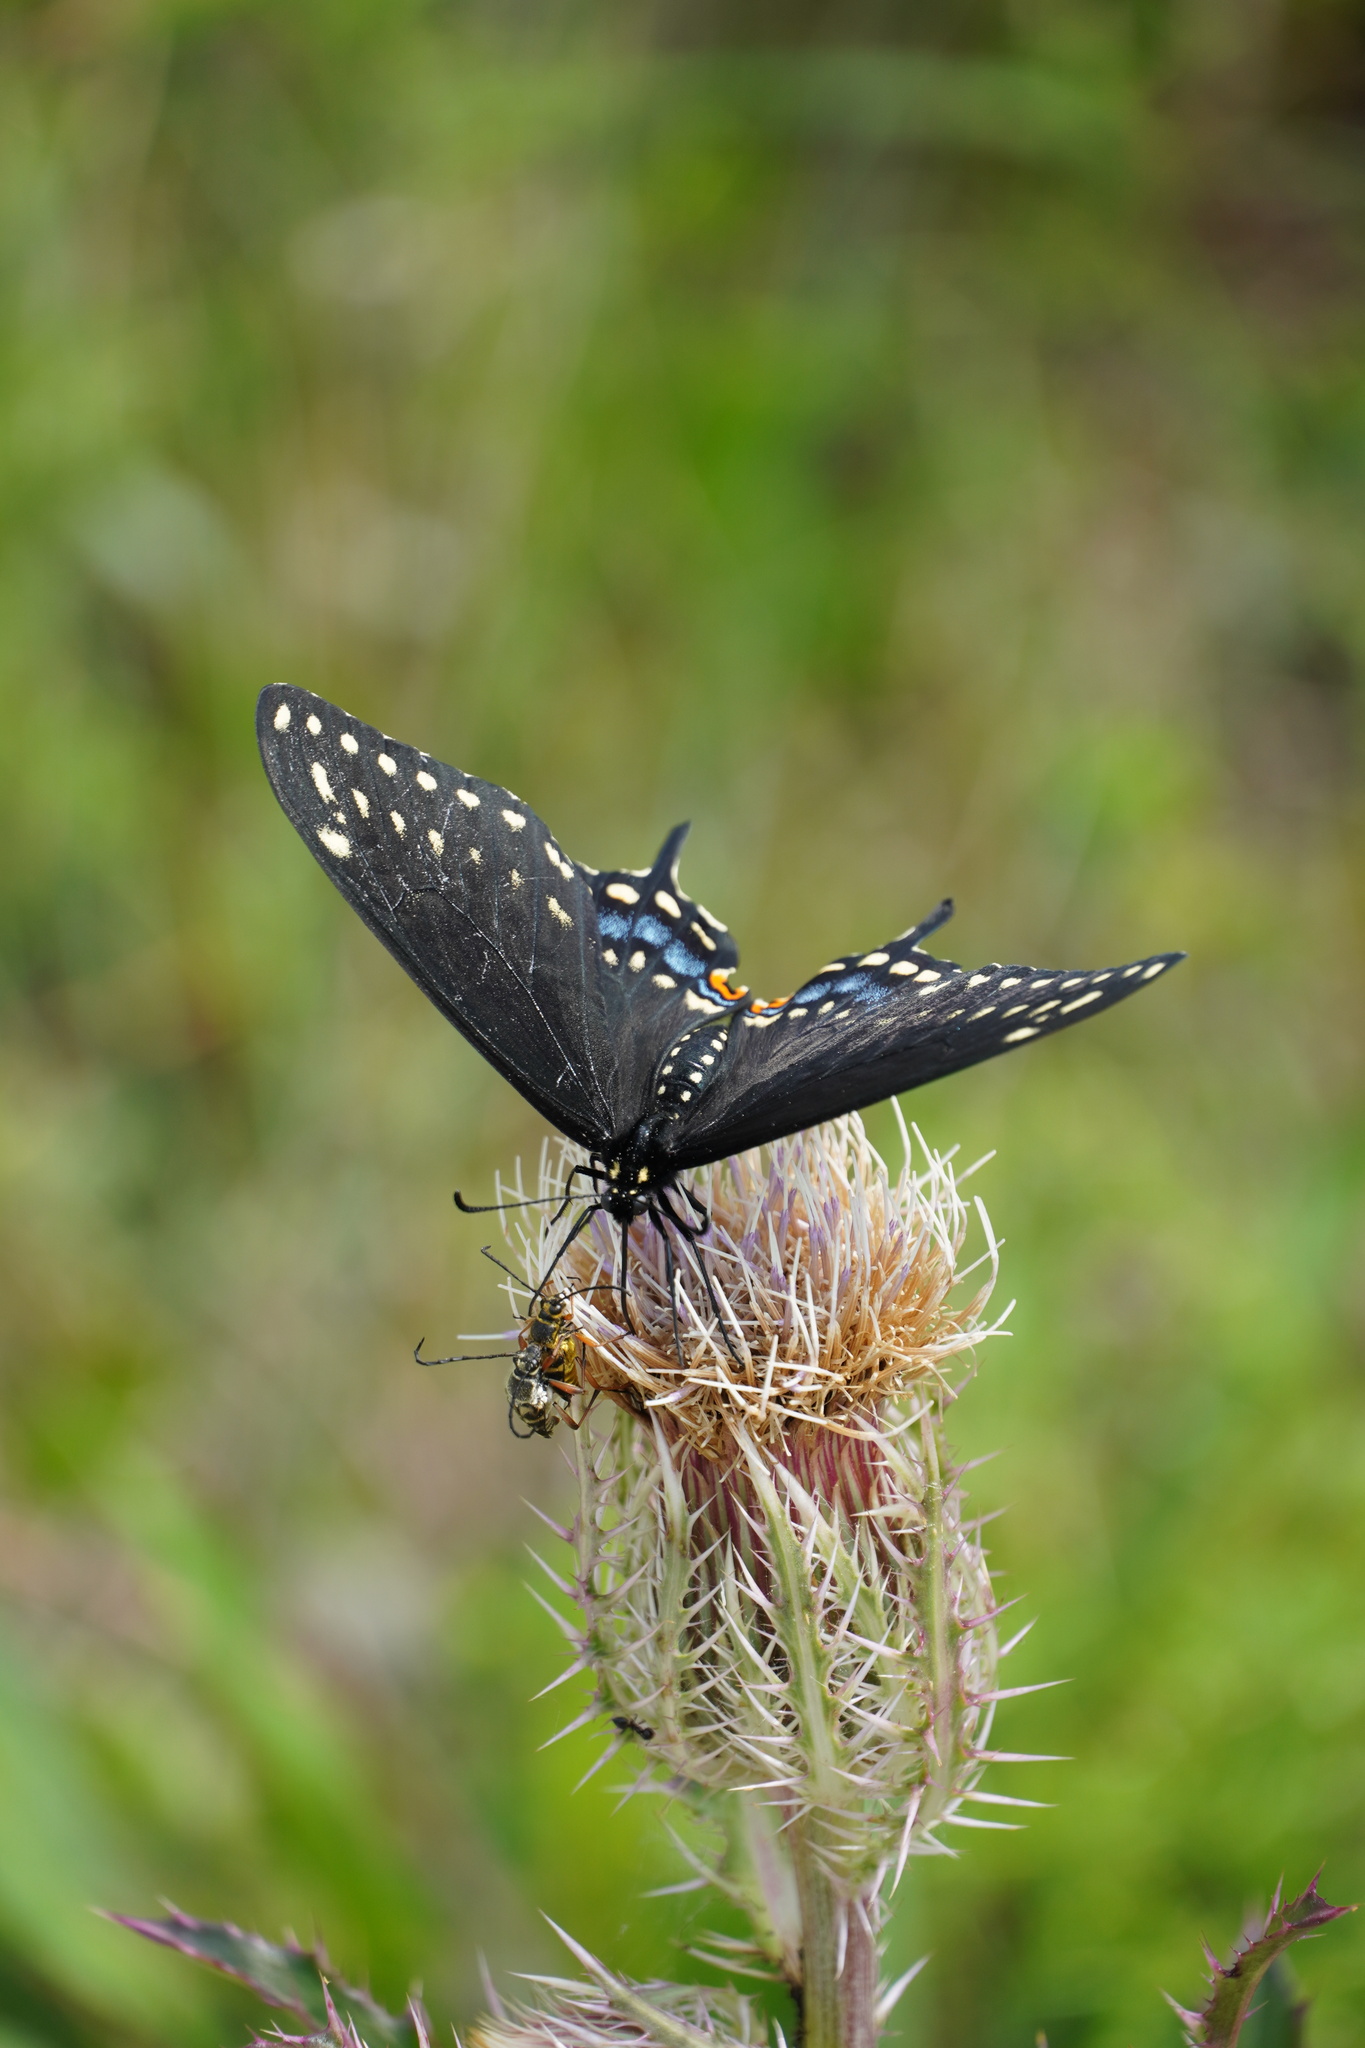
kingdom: Animalia
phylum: Arthropoda
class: Insecta
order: Lepidoptera
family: Papilionidae
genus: Papilio
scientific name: Papilio polyxenes
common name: Black swallowtail
